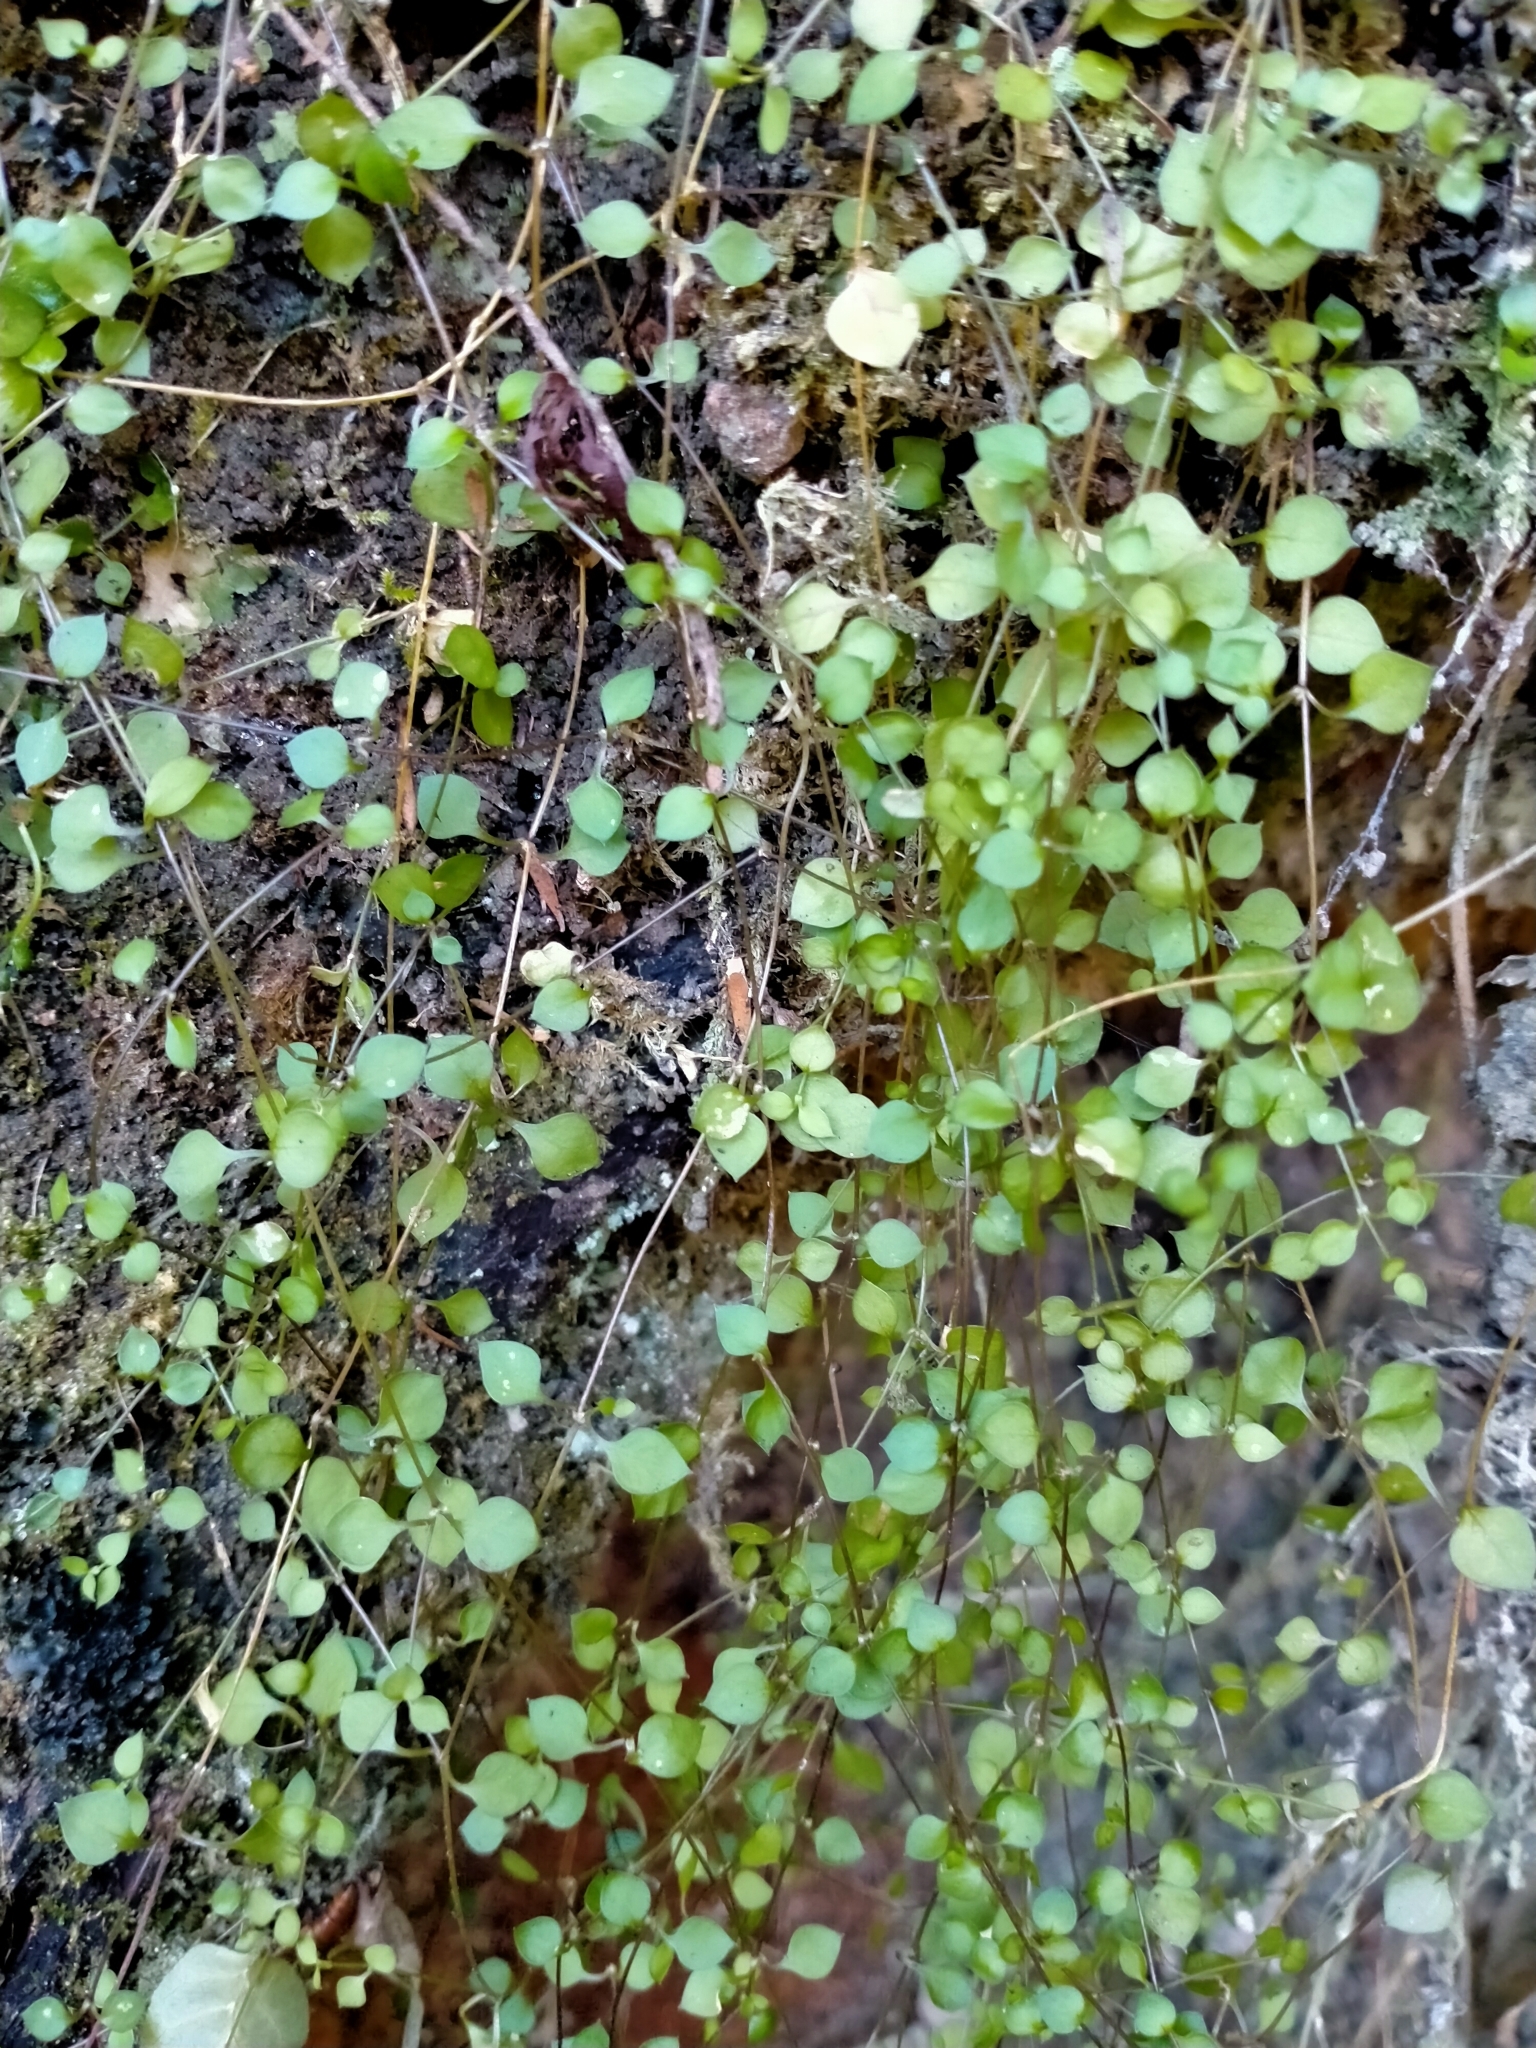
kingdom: Plantae
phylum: Tracheophyta
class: Magnoliopsida
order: Caryophyllales
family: Caryophyllaceae
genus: Stellaria
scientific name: Stellaria parviflora
